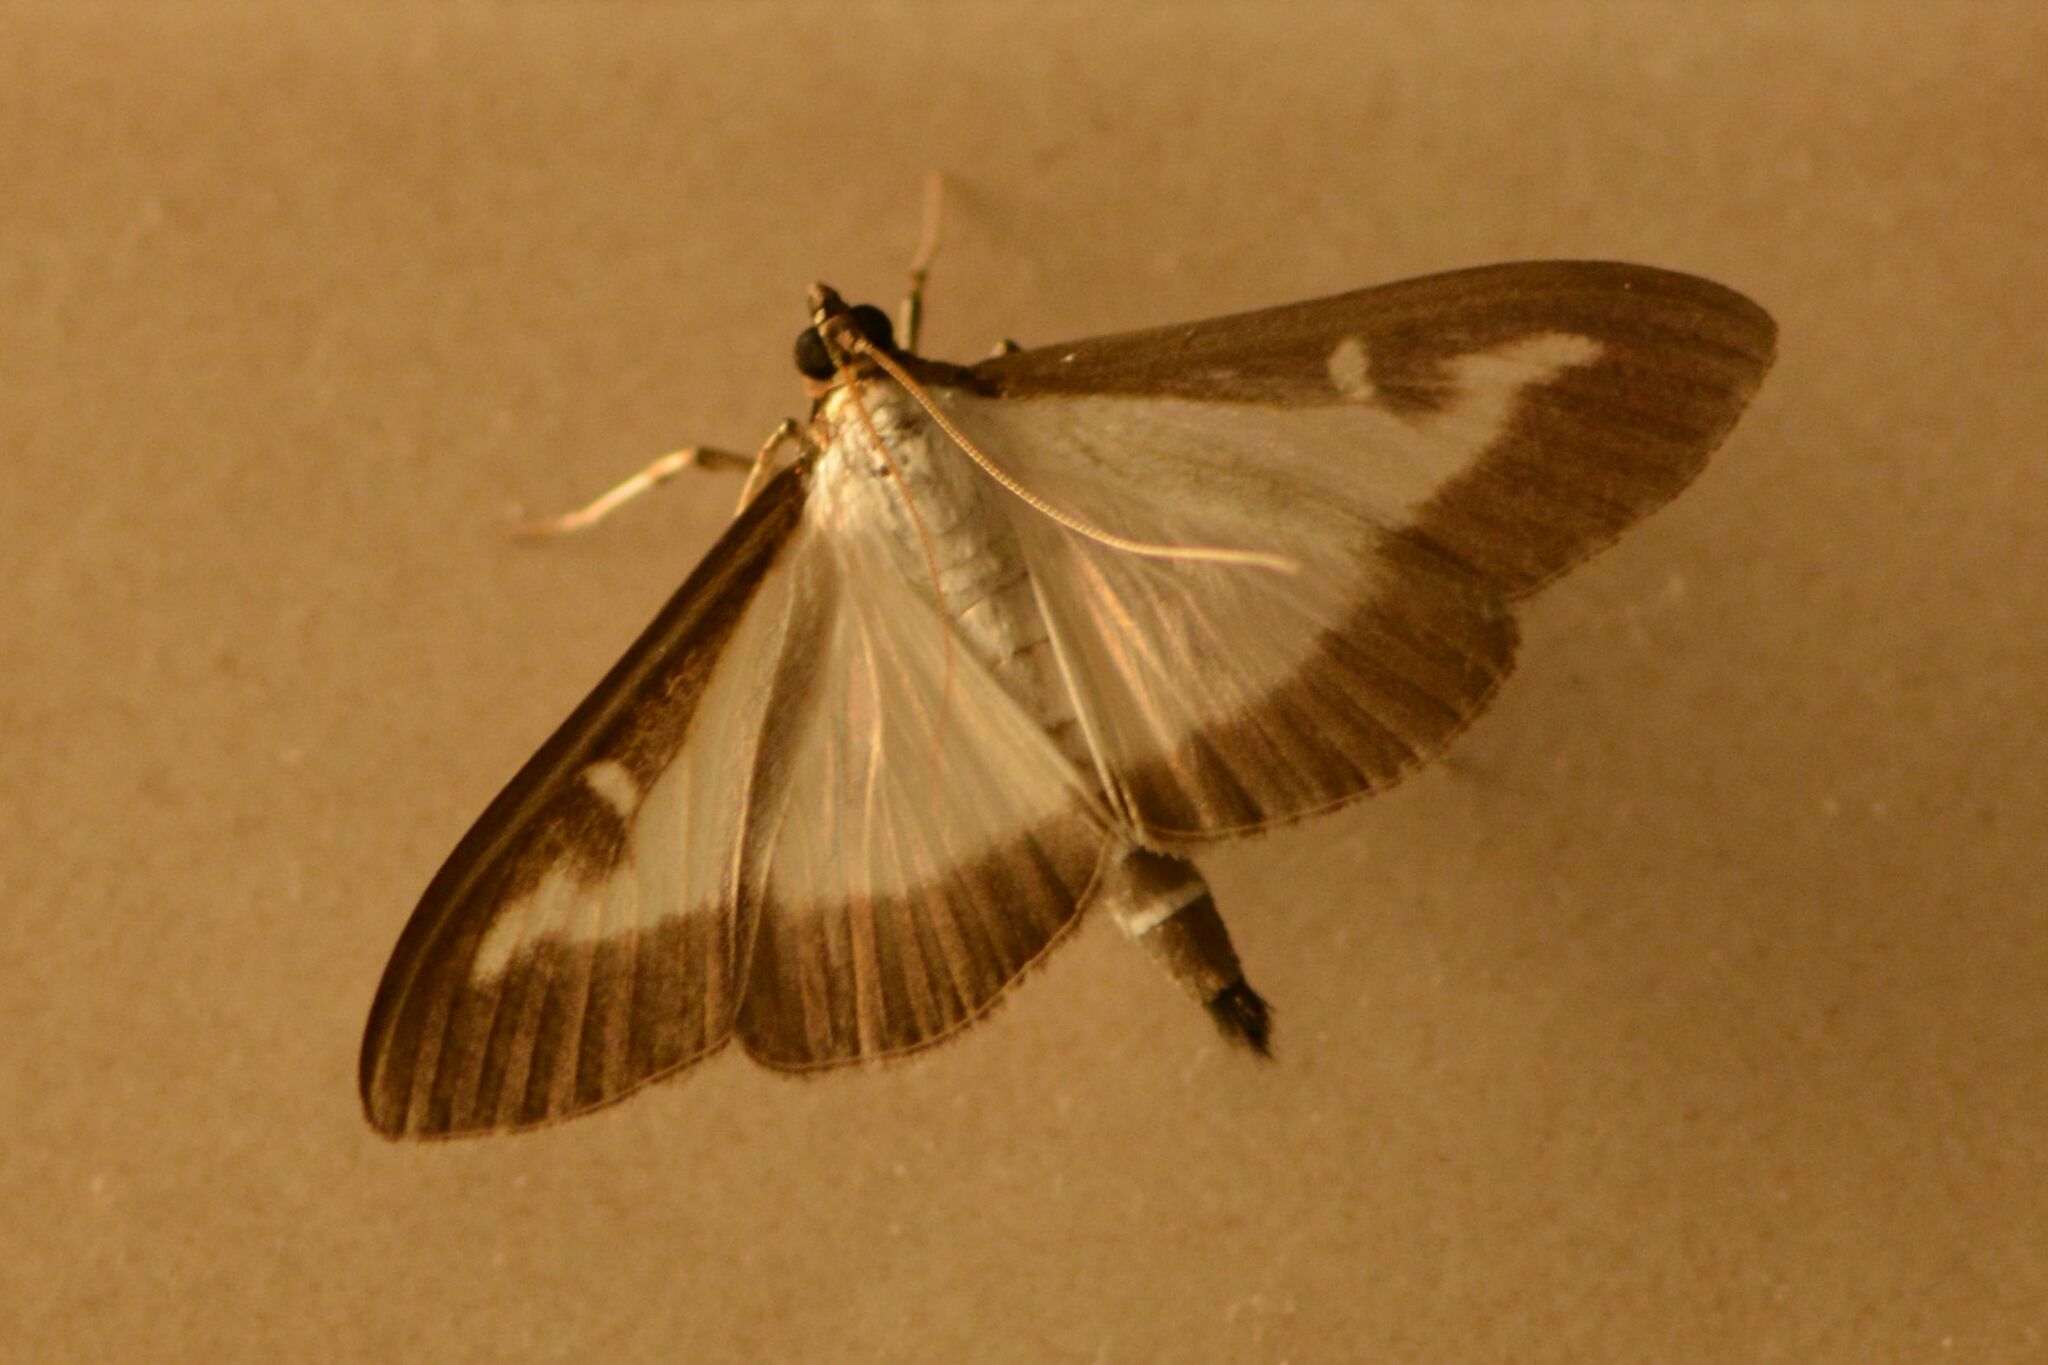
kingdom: Animalia
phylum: Arthropoda
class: Insecta
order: Lepidoptera
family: Crambidae
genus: Cydalima
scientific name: Cydalima perspectalis
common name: Box tree moth
